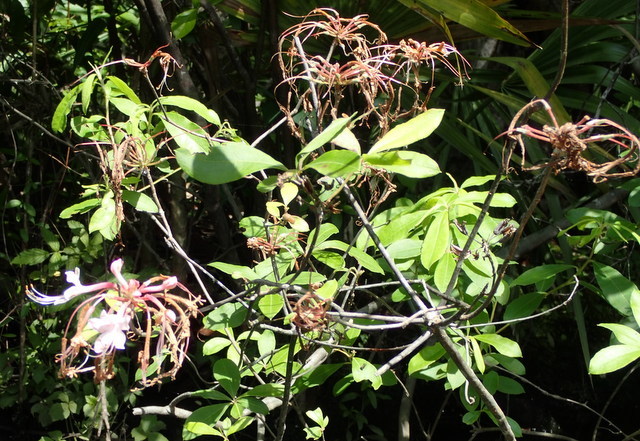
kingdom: Plantae
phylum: Tracheophyta
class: Magnoliopsida
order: Ericales
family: Ericaceae
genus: Rhododendron
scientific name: Rhododendron canescens
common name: Mountain azalea
